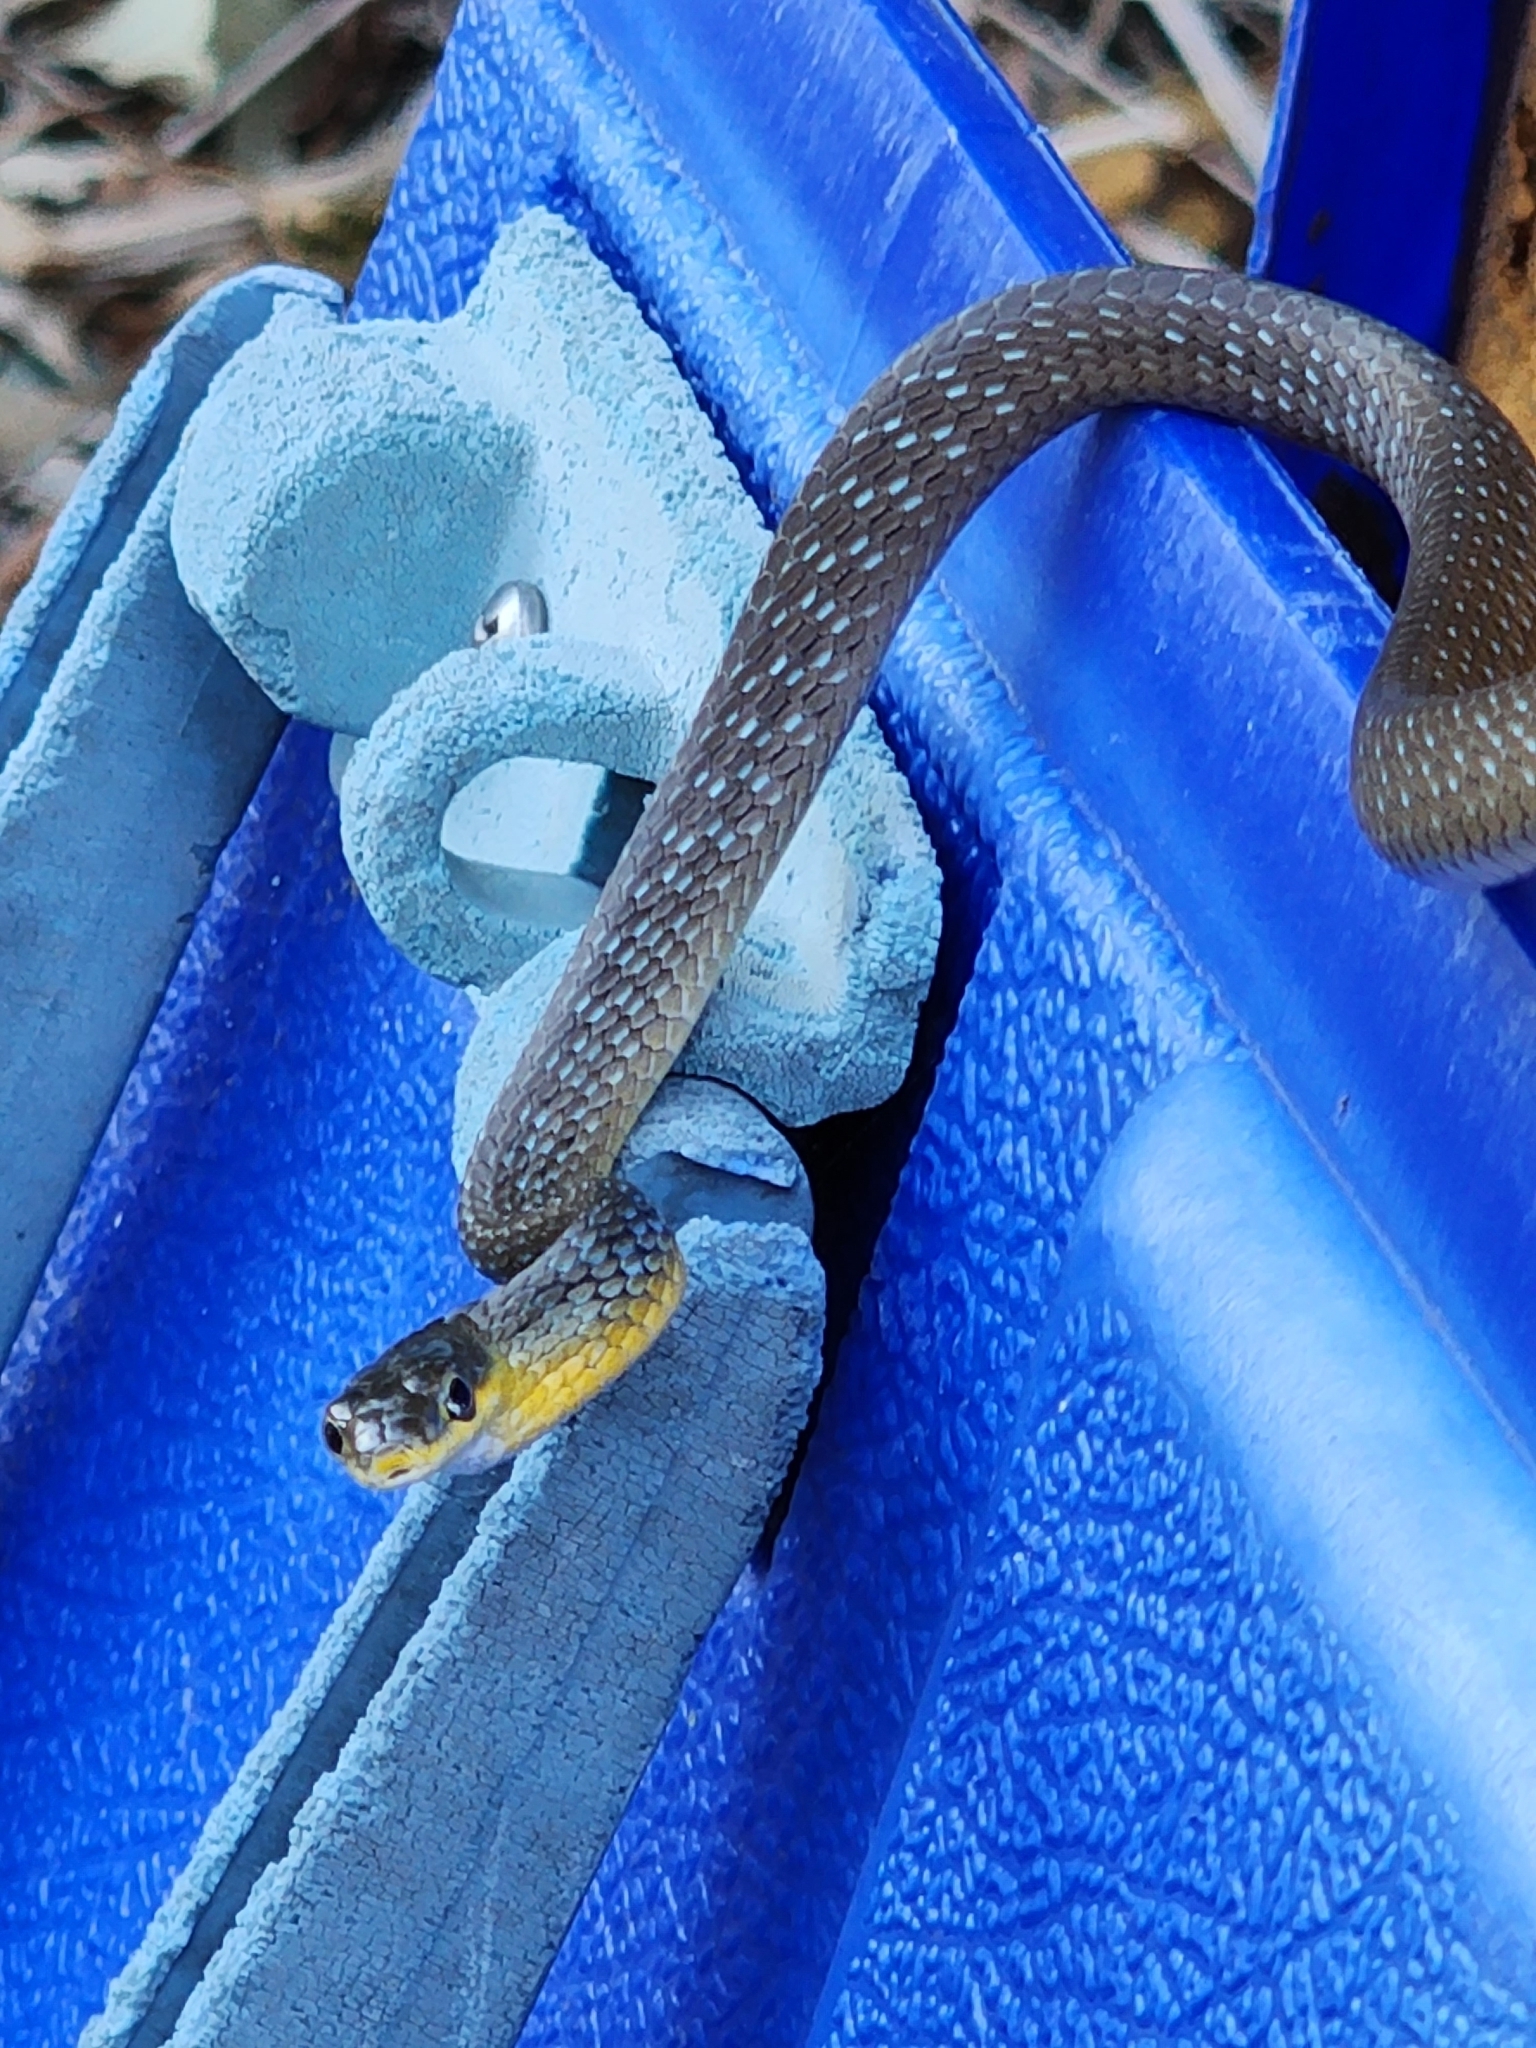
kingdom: Animalia
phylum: Chordata
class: Squamata
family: Colubridae
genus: Dendrelaphis
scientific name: Dendrelaphis punctulatus
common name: Common tree snake
